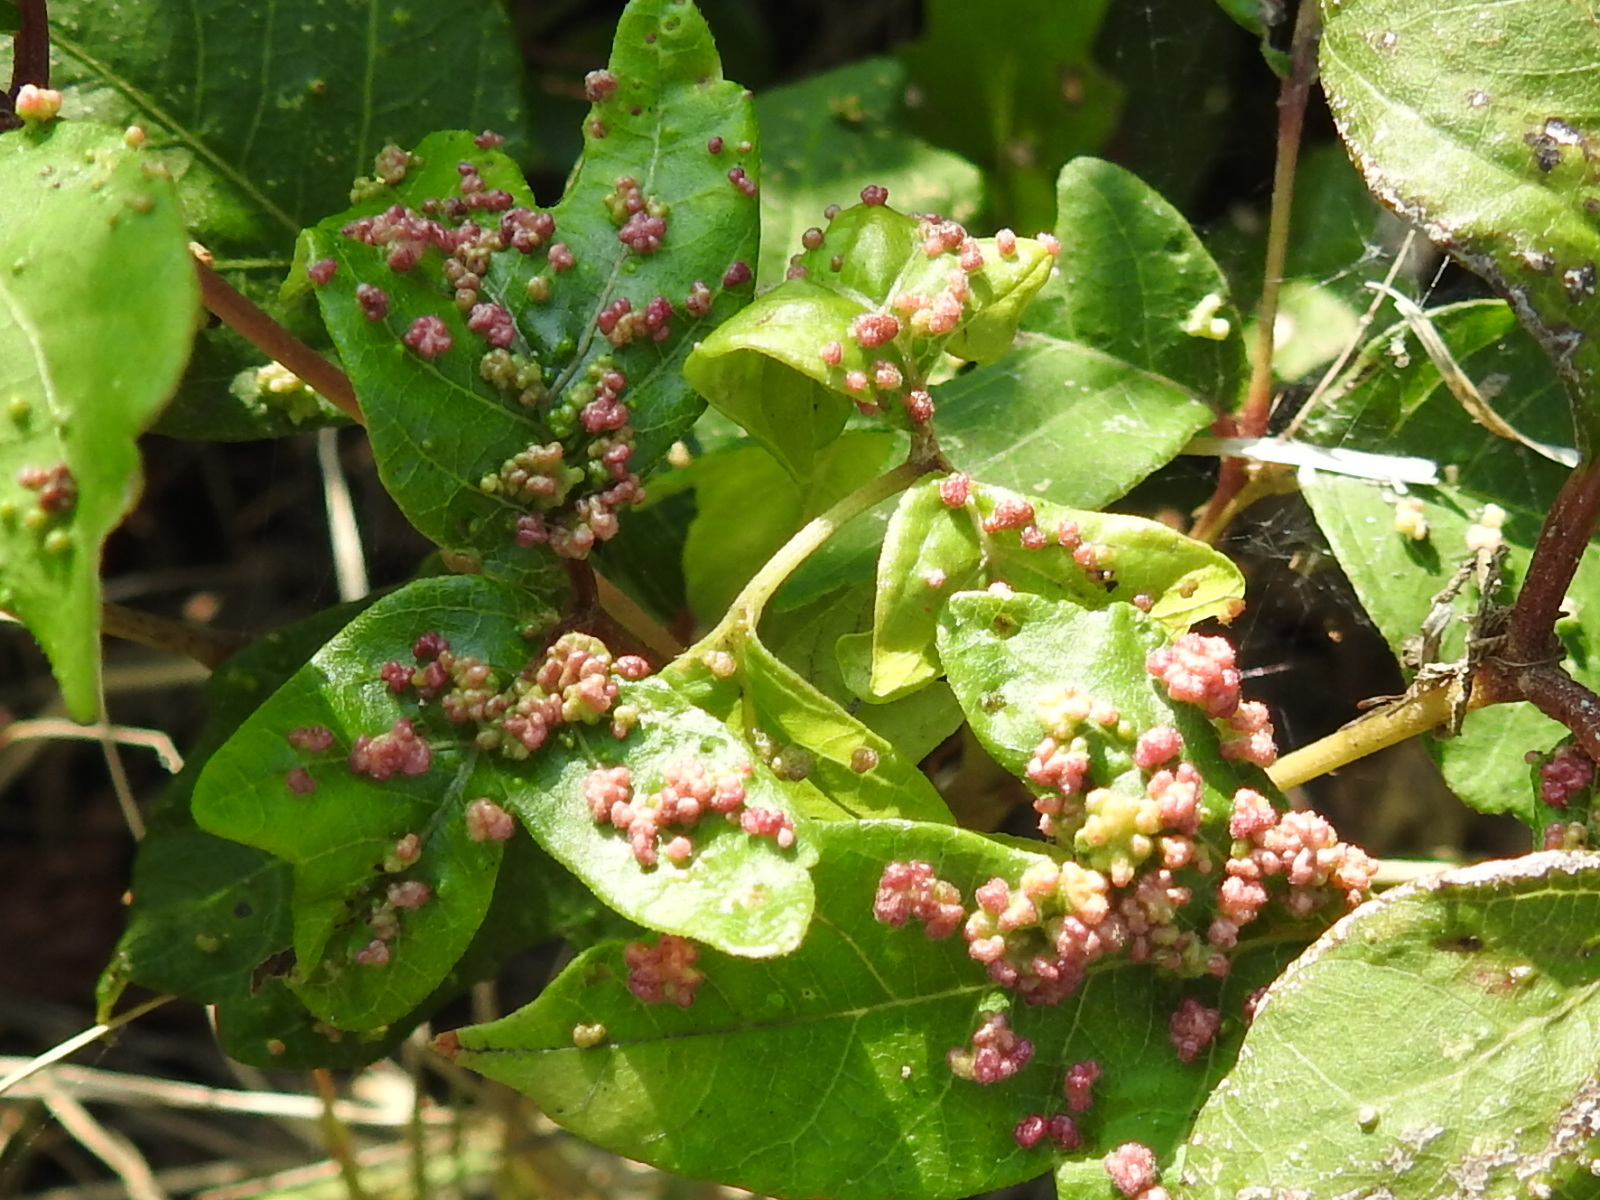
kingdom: Animalia
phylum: Arthropoda
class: Arachnida
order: Trombidiformes
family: Eriophyidae
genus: Aculops
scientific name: Aculops
